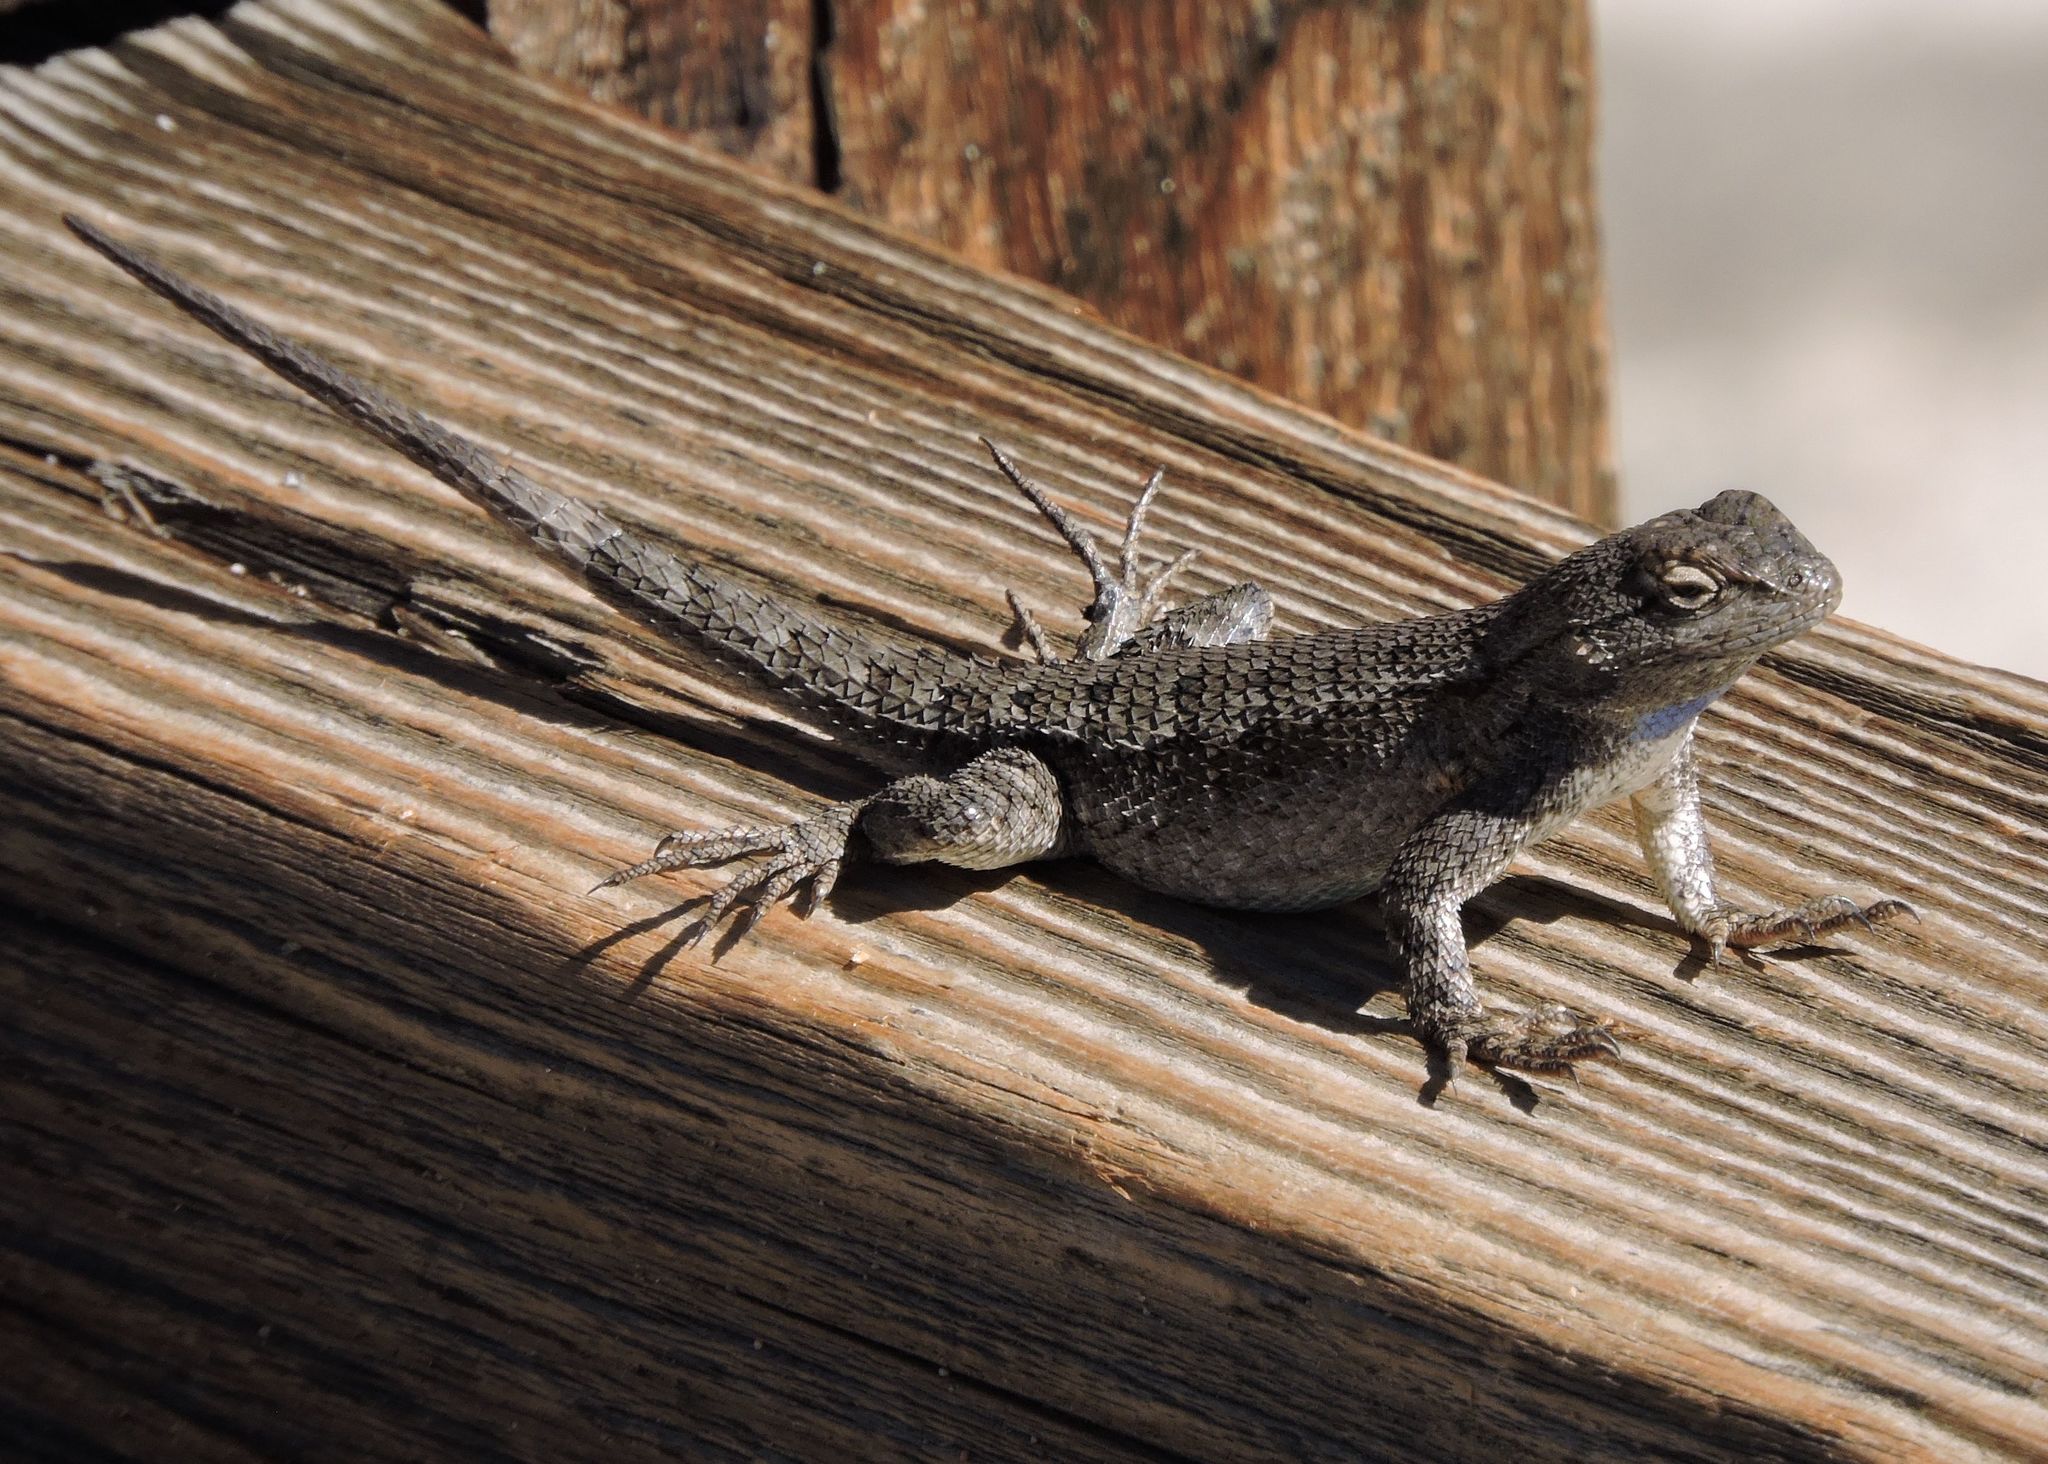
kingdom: Animalia
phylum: Chordata
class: Squamata
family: Phrynosomatidae
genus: Sceloporus
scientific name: Sceloporus occidentalis
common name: Western fence lizard
